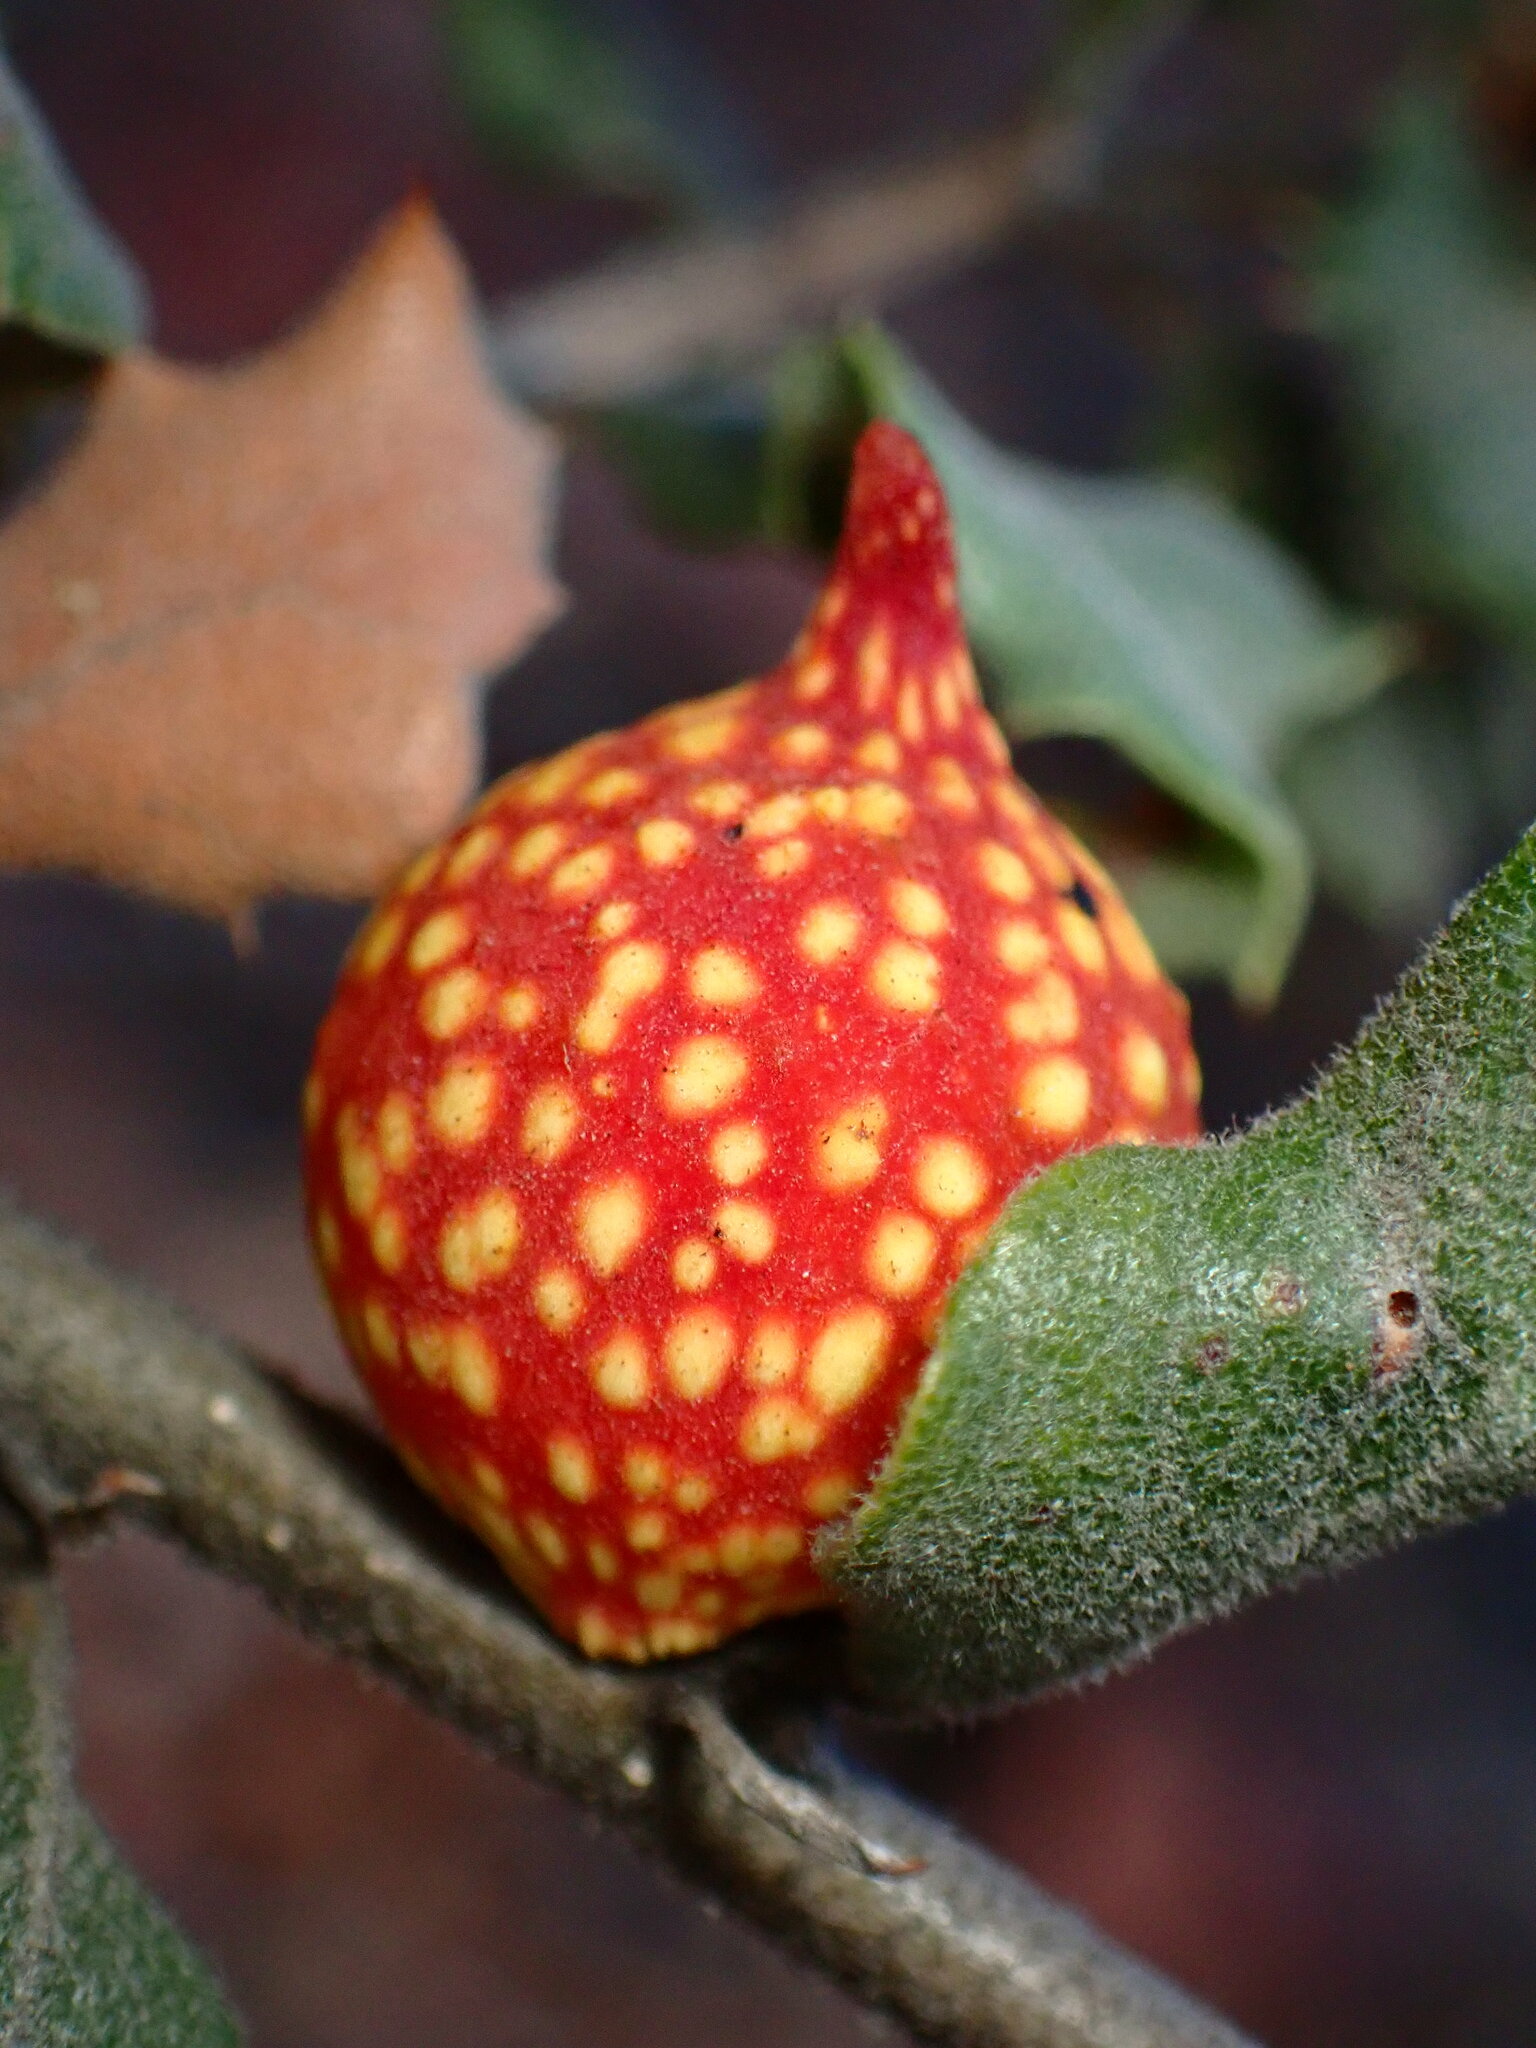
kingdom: Animalia
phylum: Arthropoda
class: Insecta
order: Hymenoptera
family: Cynipidae
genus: Burnettweldia
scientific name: Burnettweldia
